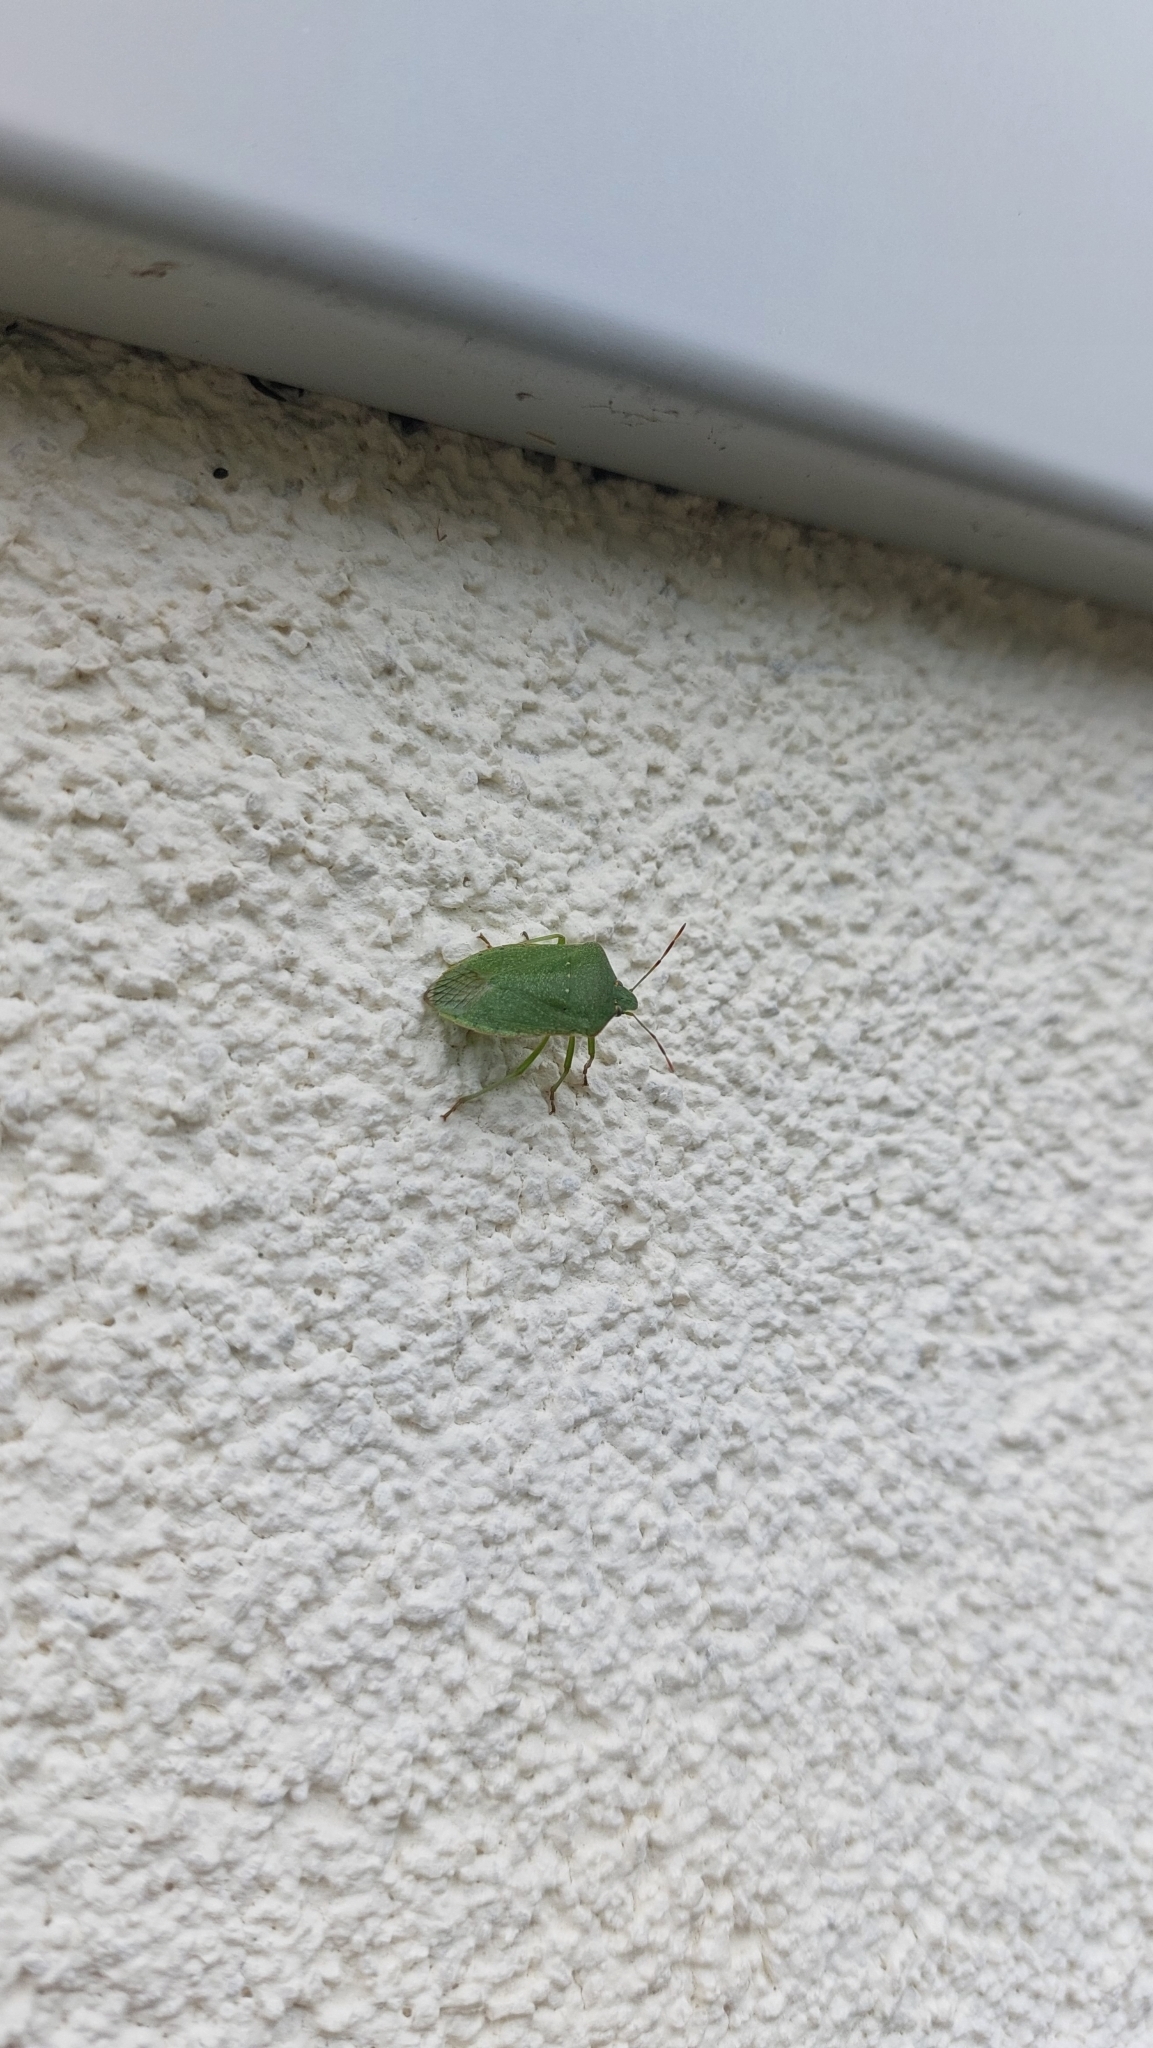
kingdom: Animalia
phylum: Arthropoda
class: Insecta
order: Hemiptera
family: Pentatomidae
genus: Nezara
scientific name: Nezara viridula
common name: Southern green stink bug
